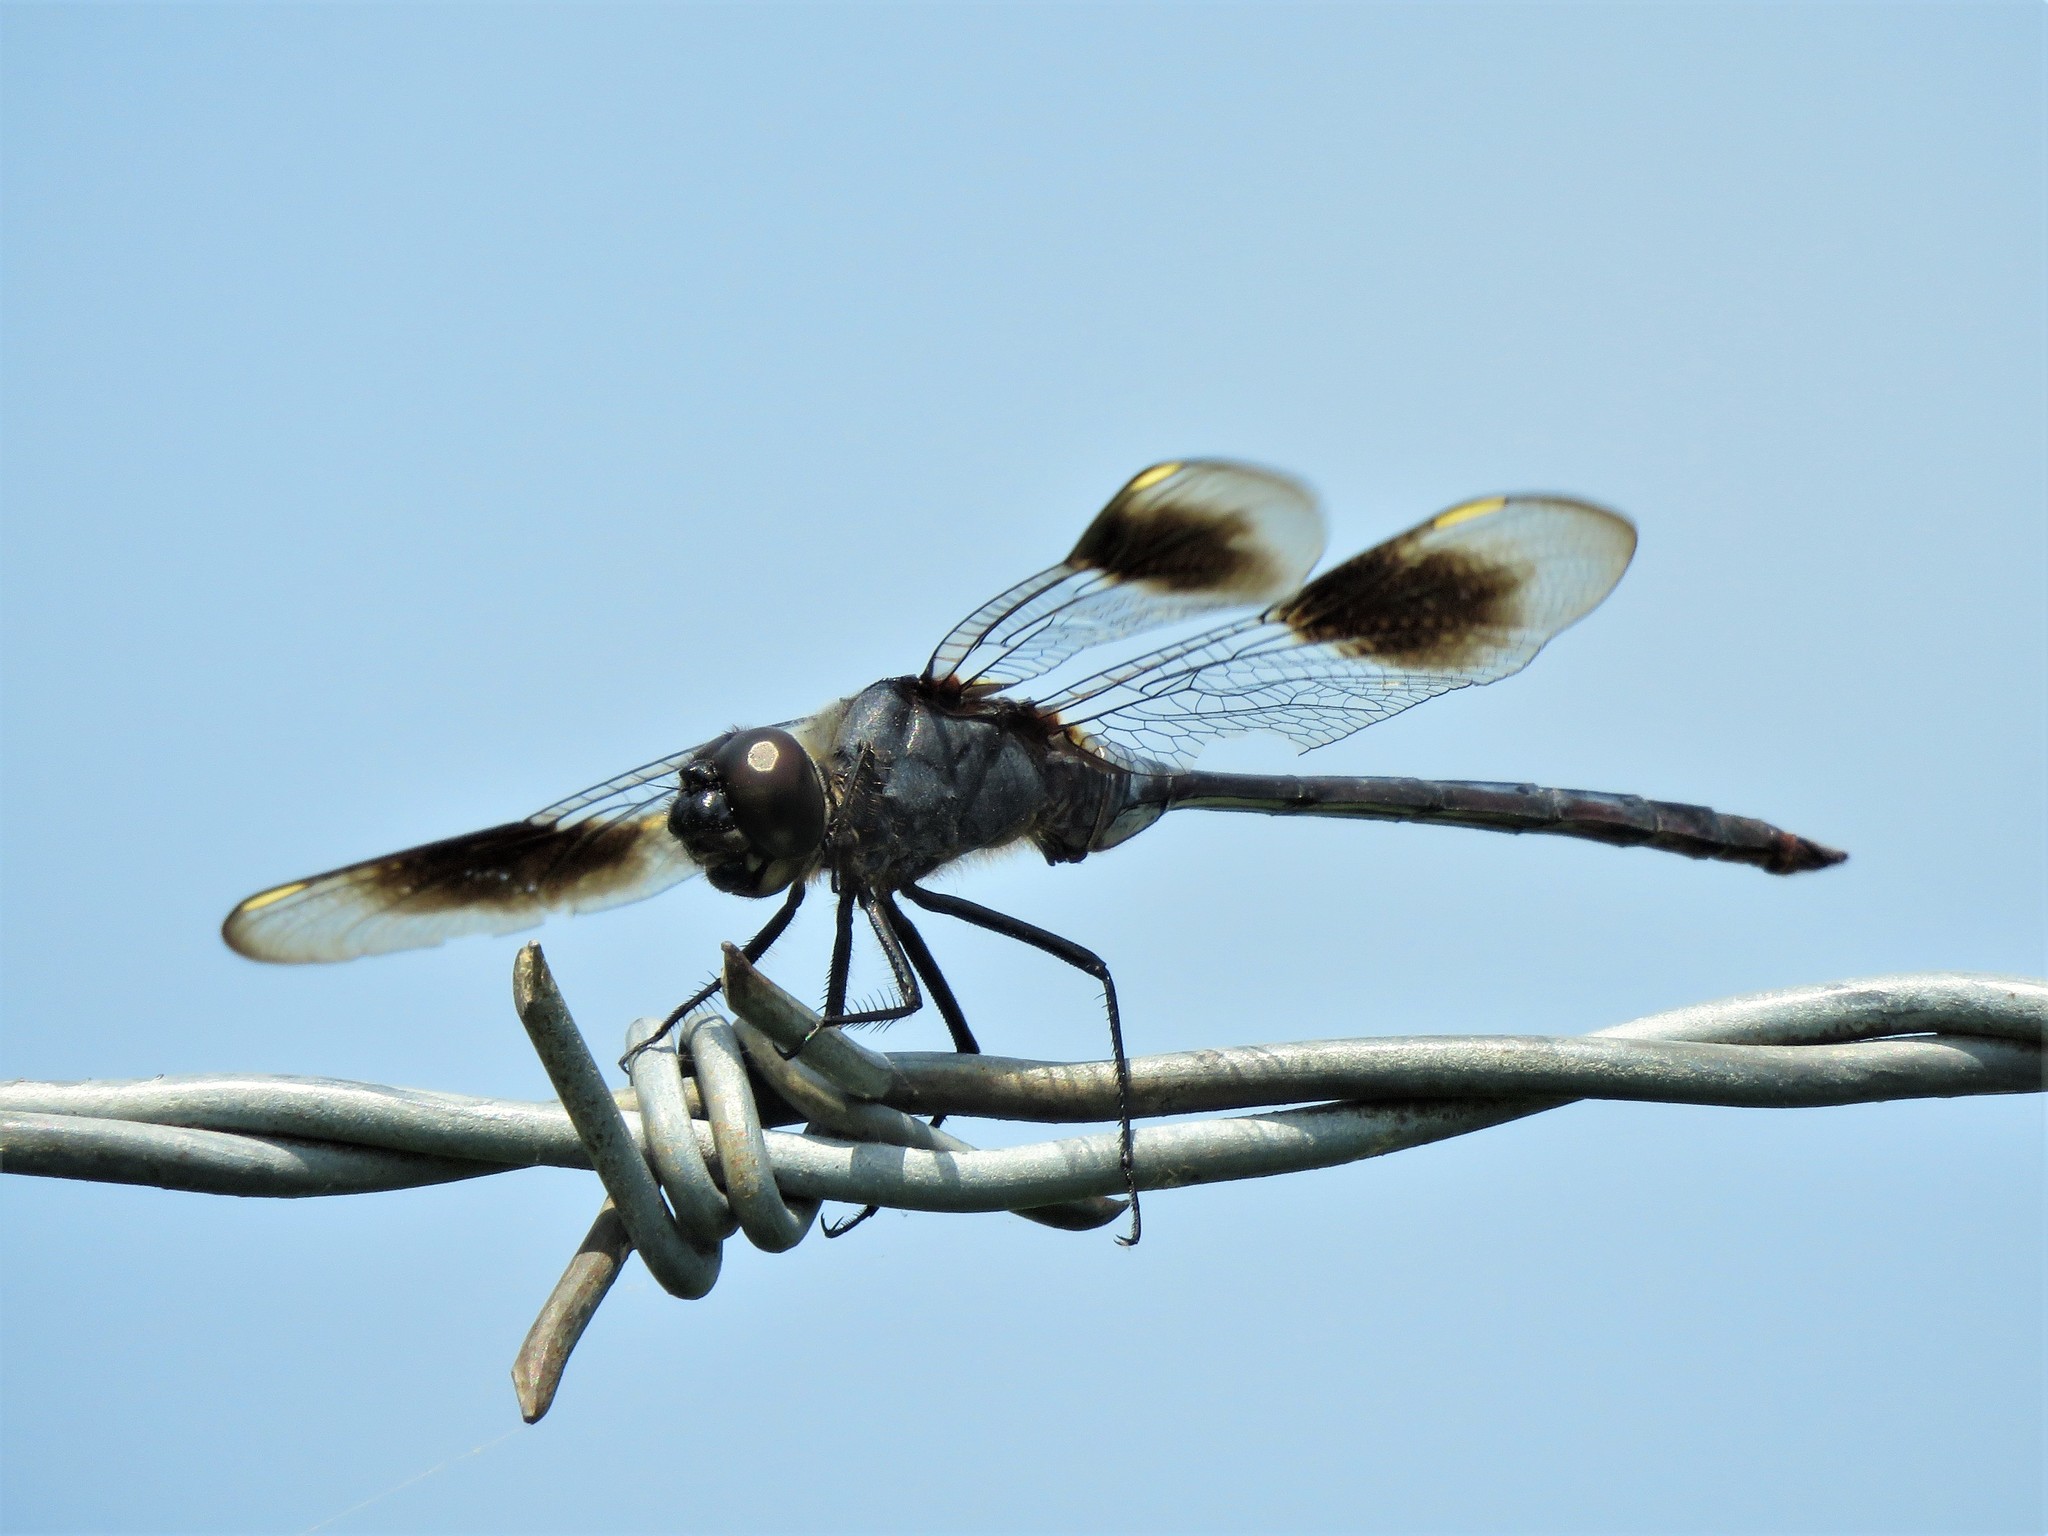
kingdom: Animalia
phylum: Arthropoda
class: Insecta
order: Odonata
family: Libellulidae
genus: Brachymesia
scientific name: Brachymesia gravida
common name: Four-spotted pennant
